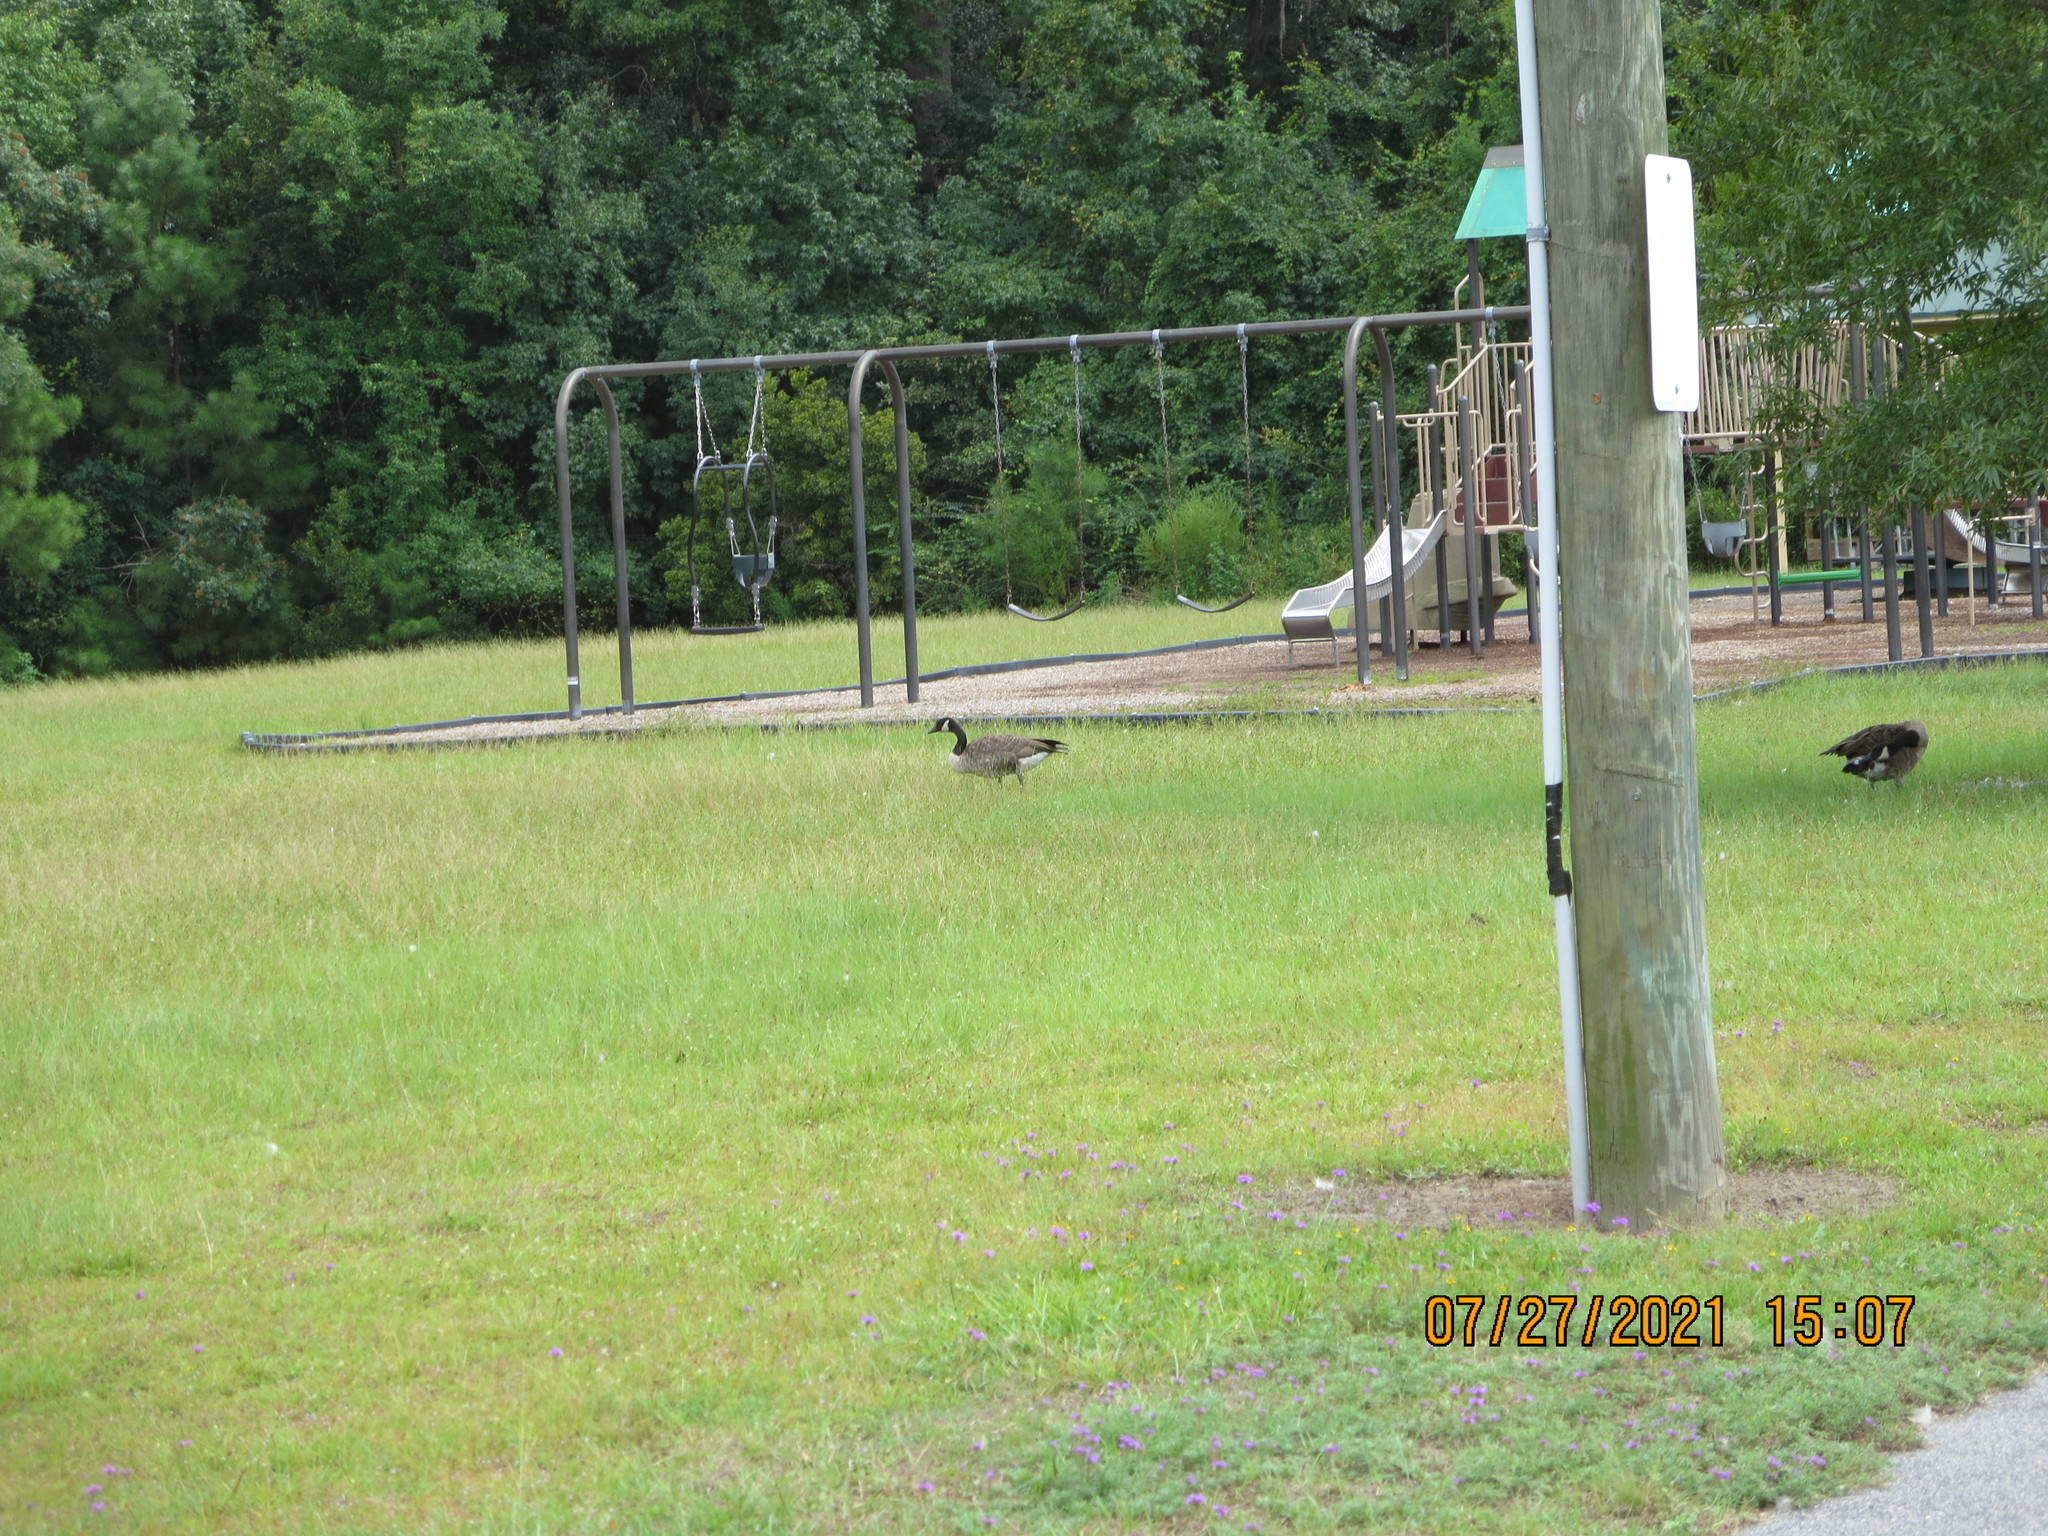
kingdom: Animalia
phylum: Chordata
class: Aves
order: Anseriformes
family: Anatidae
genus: Branta
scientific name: Branta canadensis
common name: Canada goose
